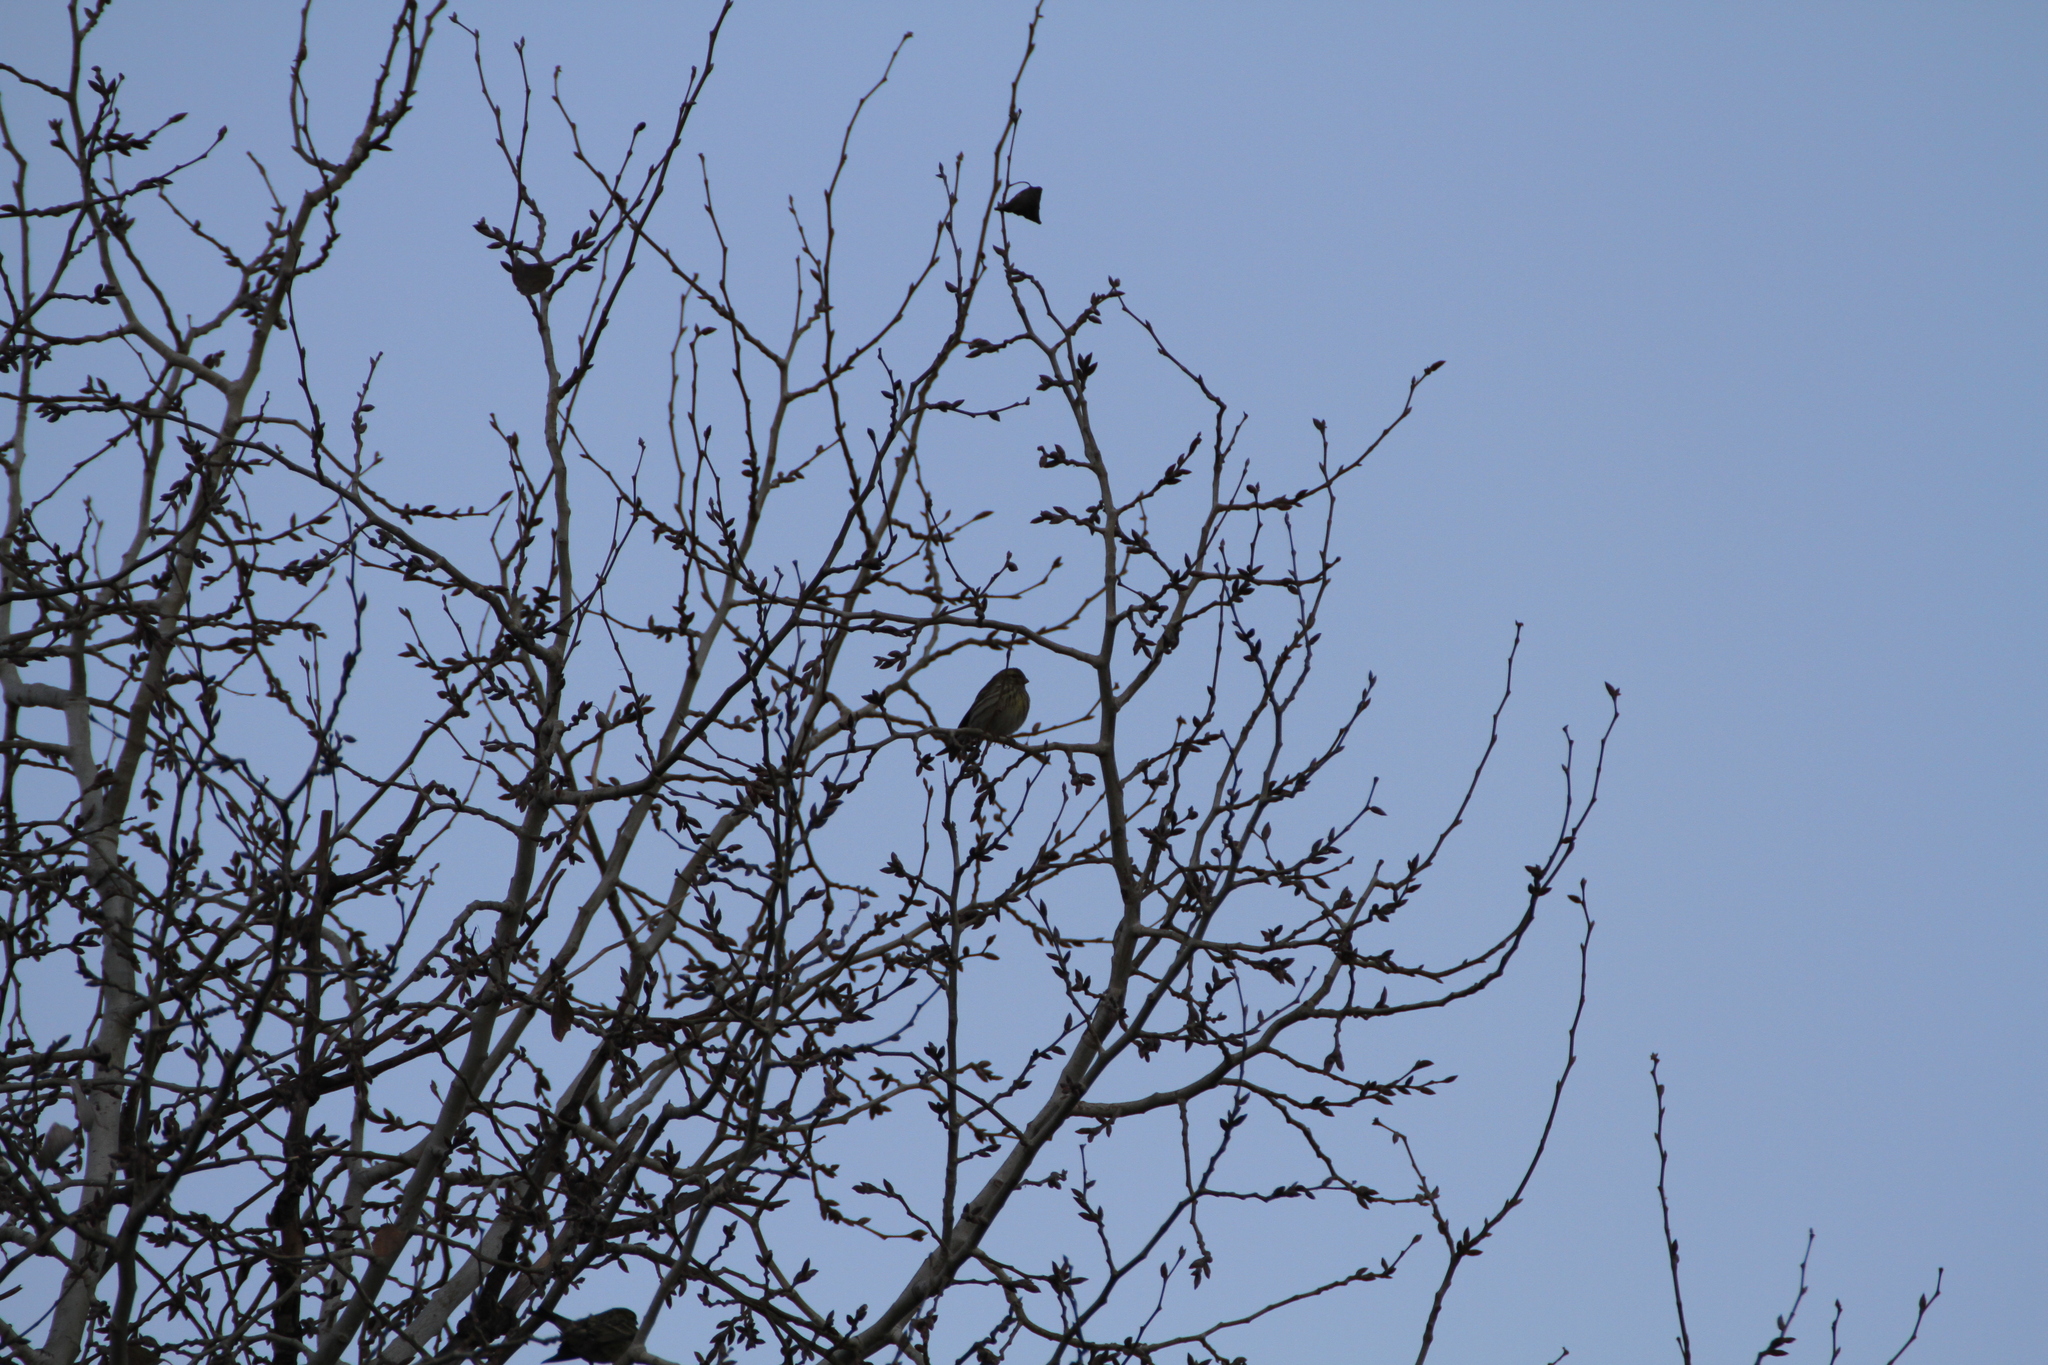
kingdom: Animalia
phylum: Chordata
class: Aves
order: Passeriformes
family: Fringillidae
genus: Serinus
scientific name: Serinus serinus
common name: European serin
